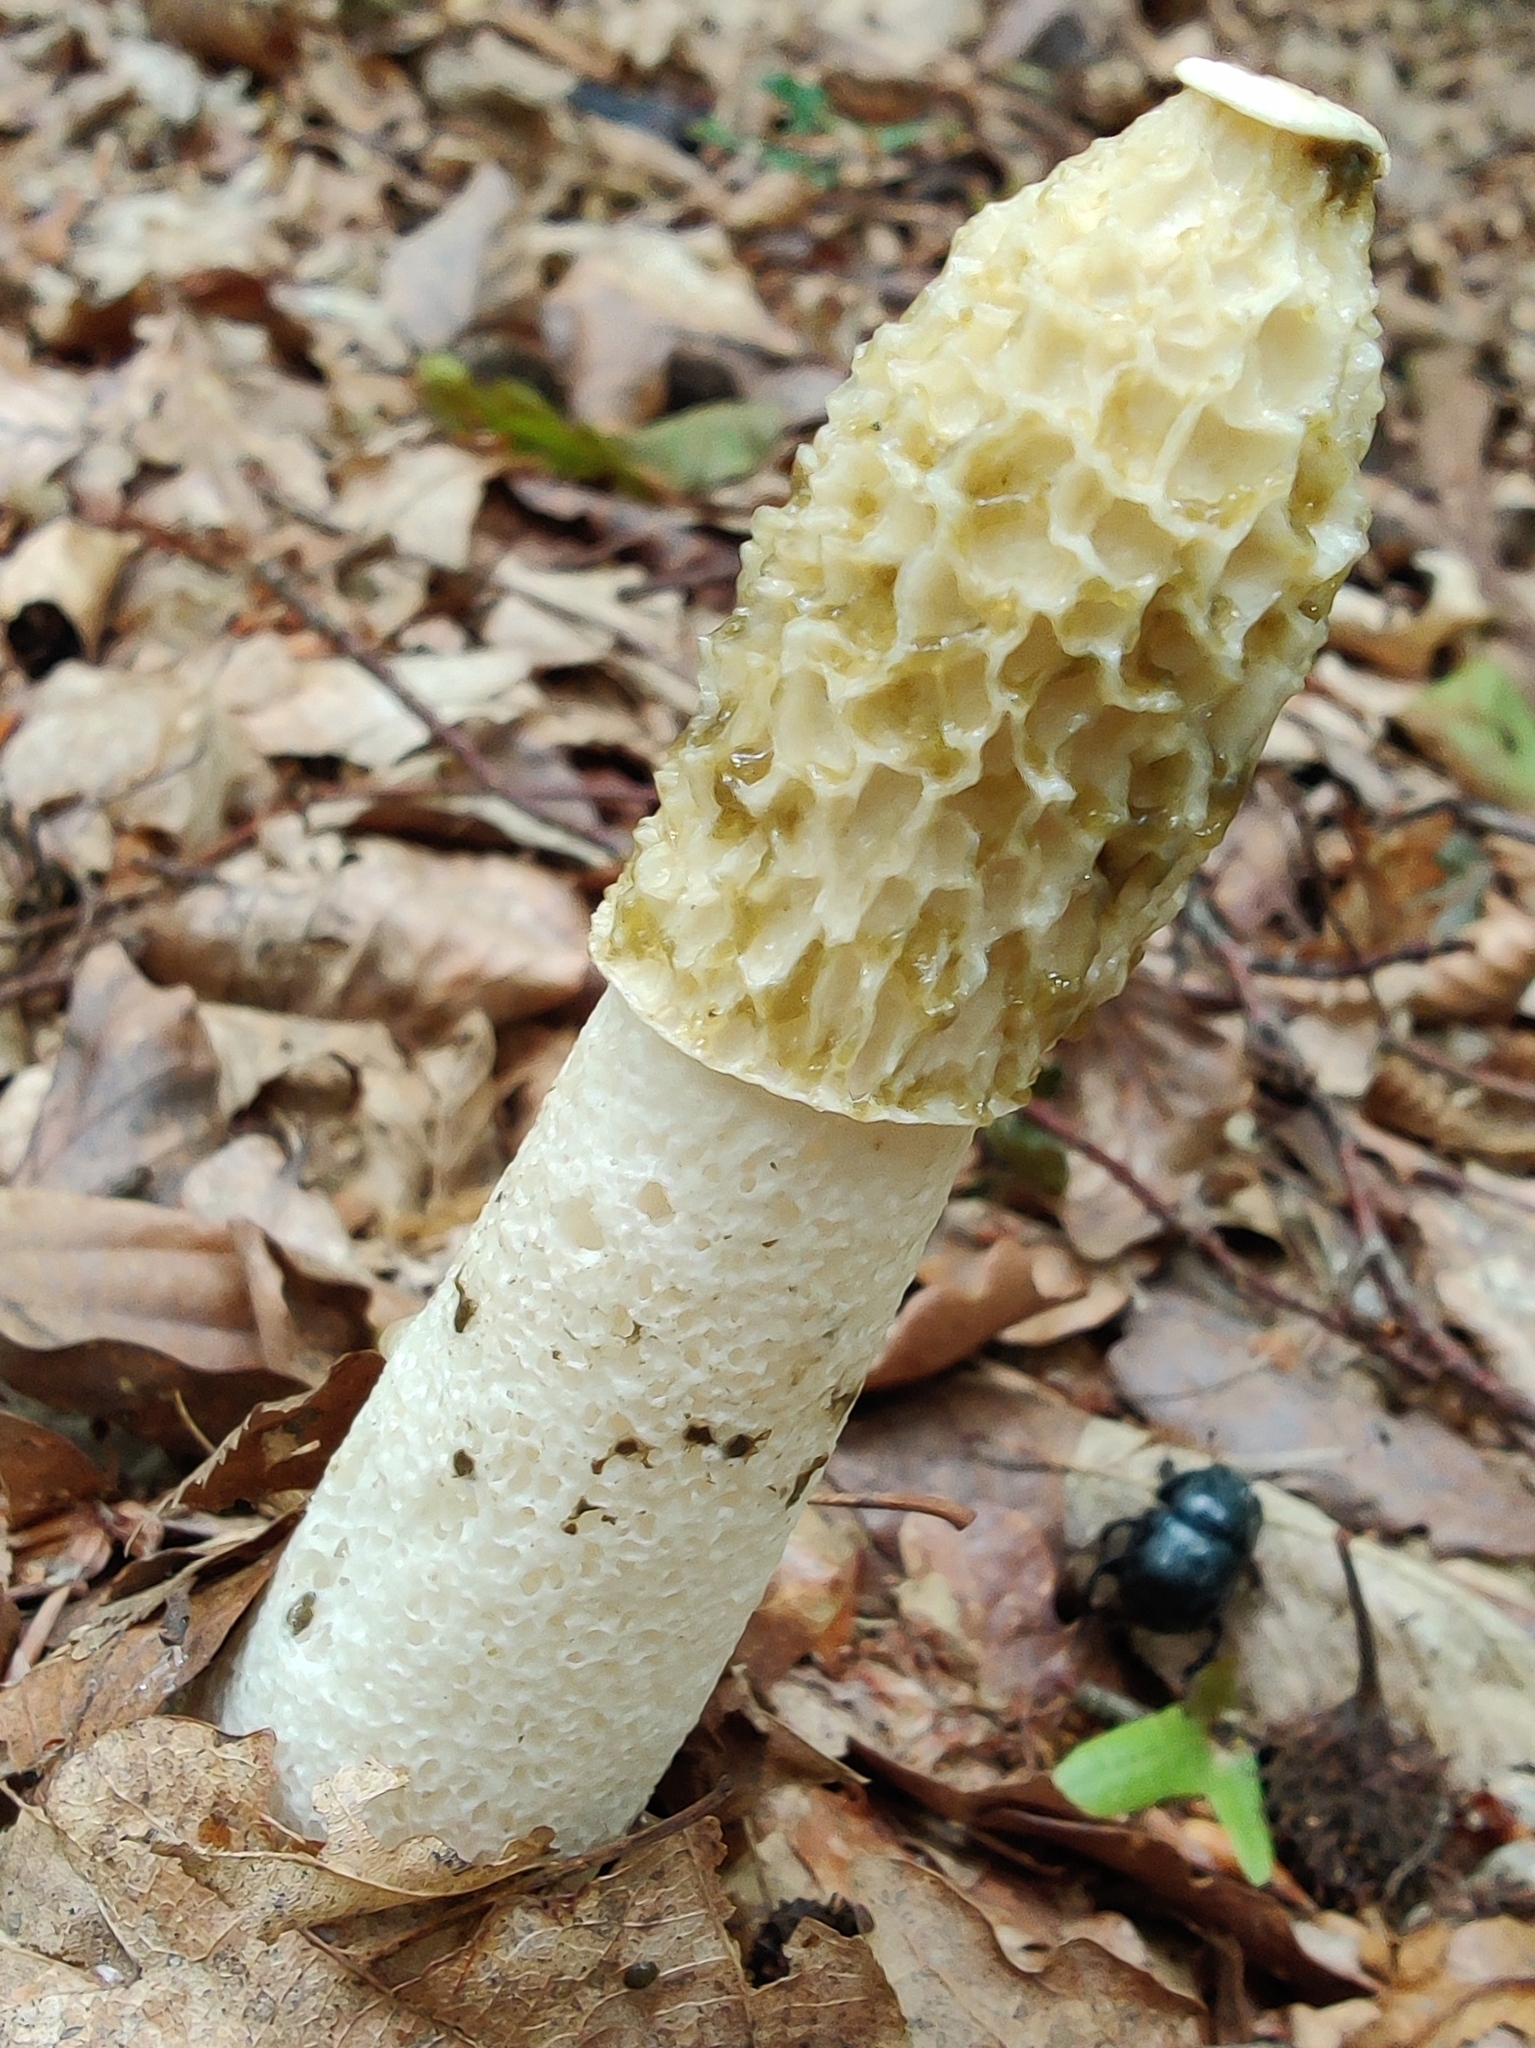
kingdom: Fungi
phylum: Basidiomycota
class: Agaricomycetes
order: Phallales
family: Phallaceae
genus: Phallus
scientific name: Phallus impudicus
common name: Common stinkhorn
